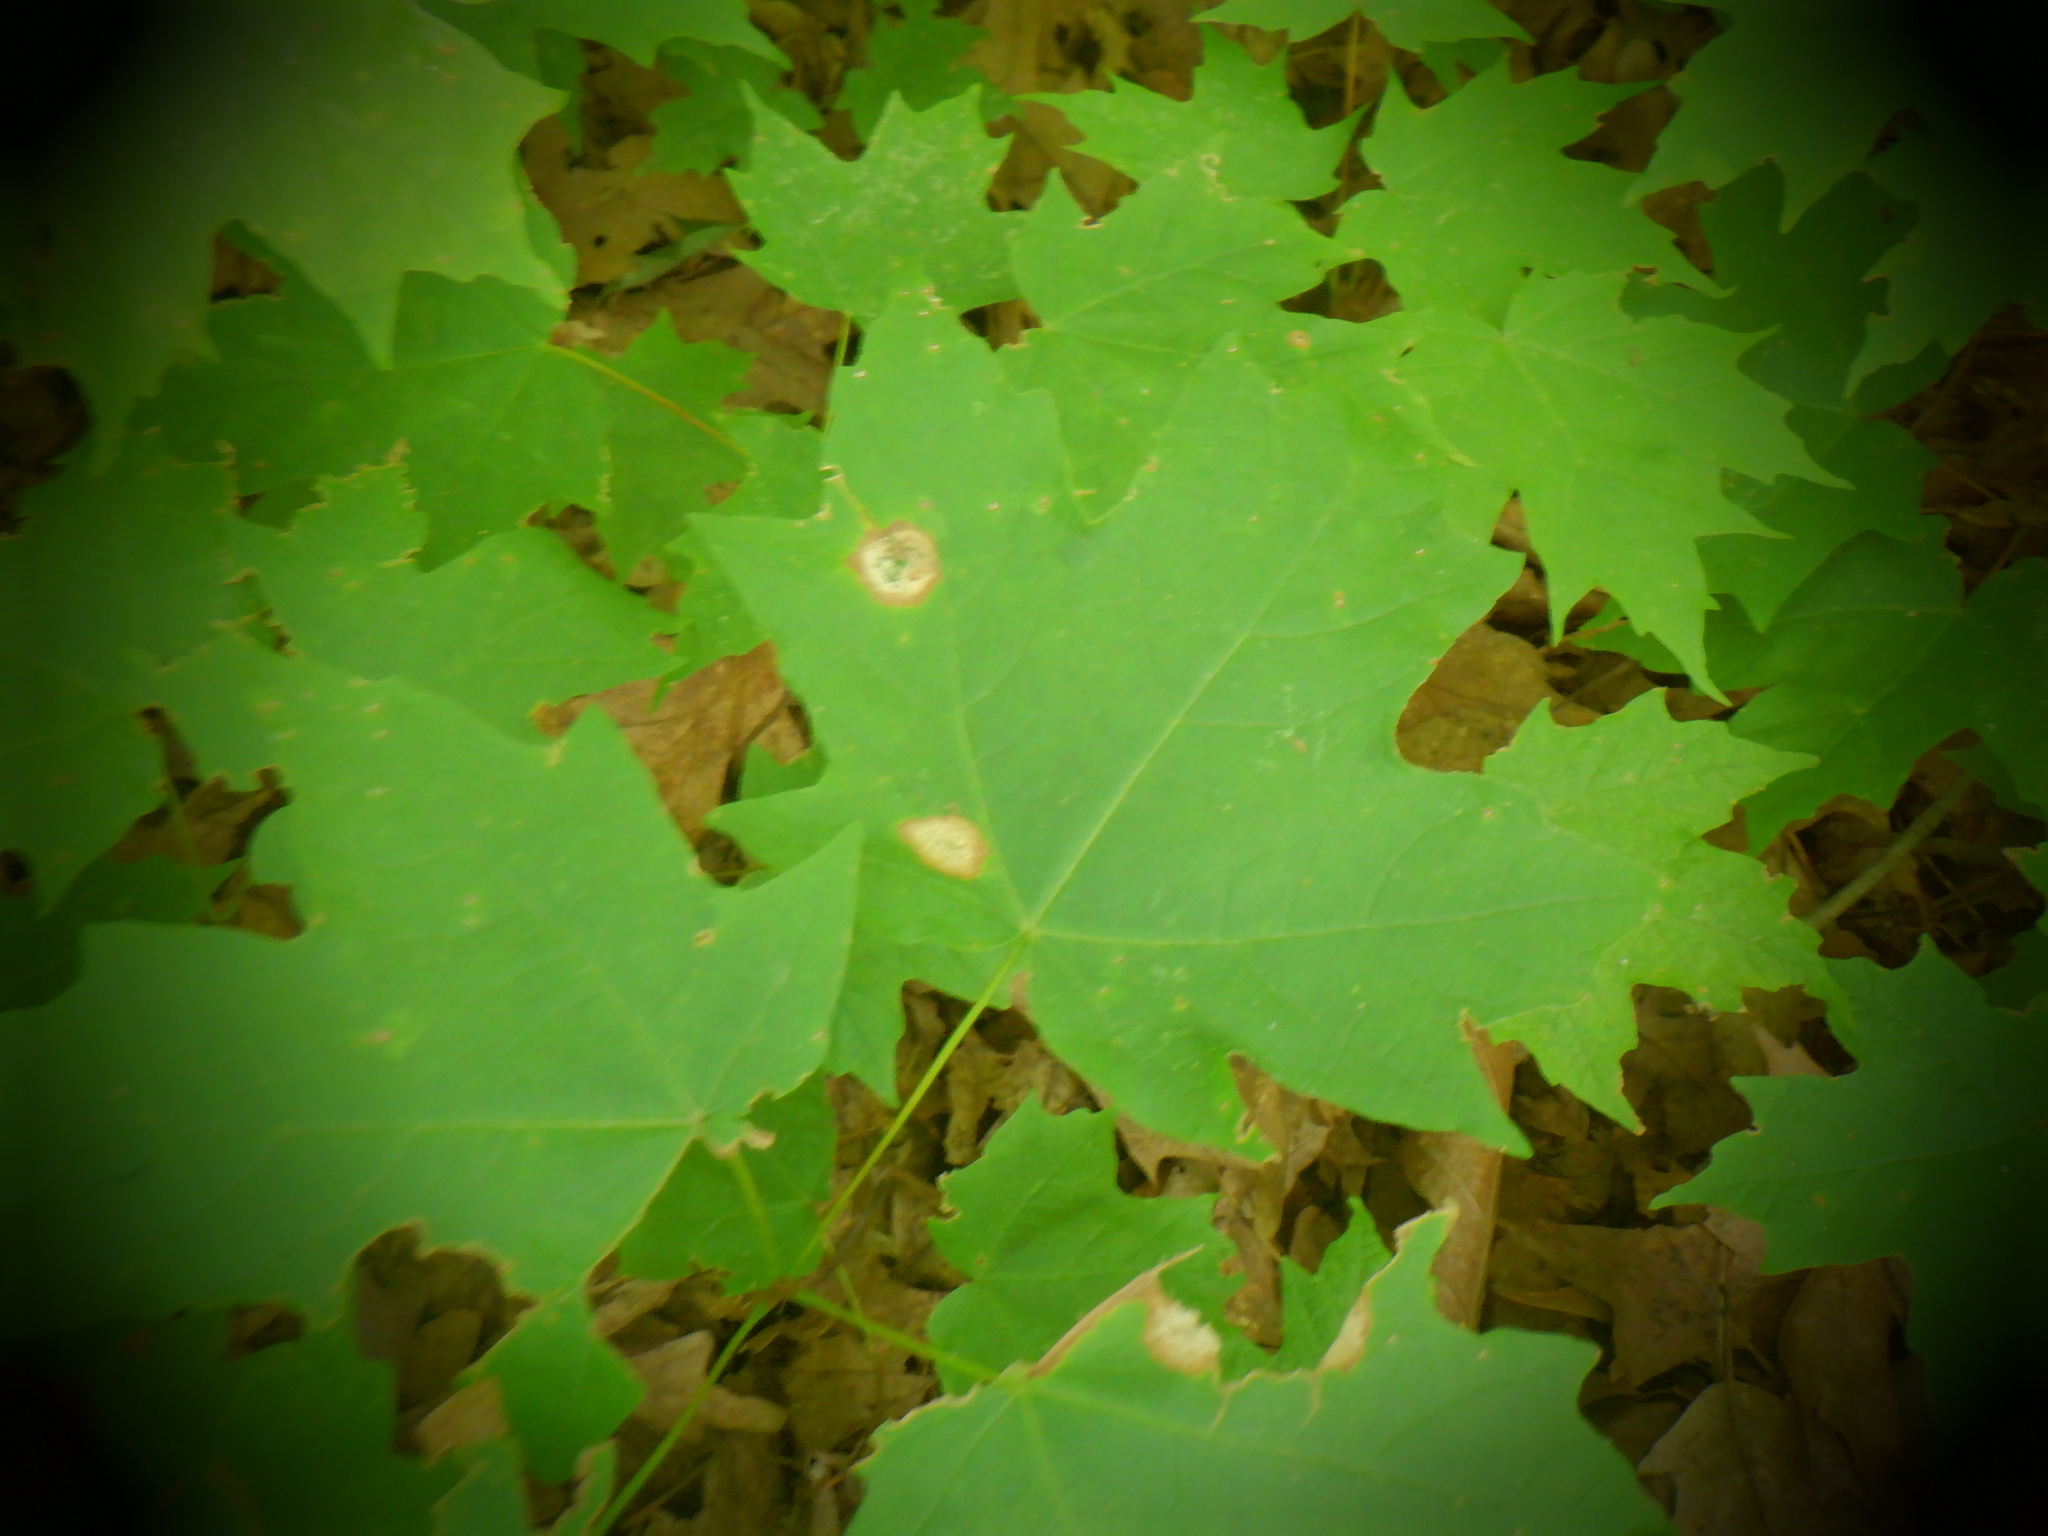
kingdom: Animalia
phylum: Arthropoda
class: Insecta
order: Diptera
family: Cecidomyiidae
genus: Acericecis
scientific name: Acericecis ocellaris
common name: Ocellate gall midge
